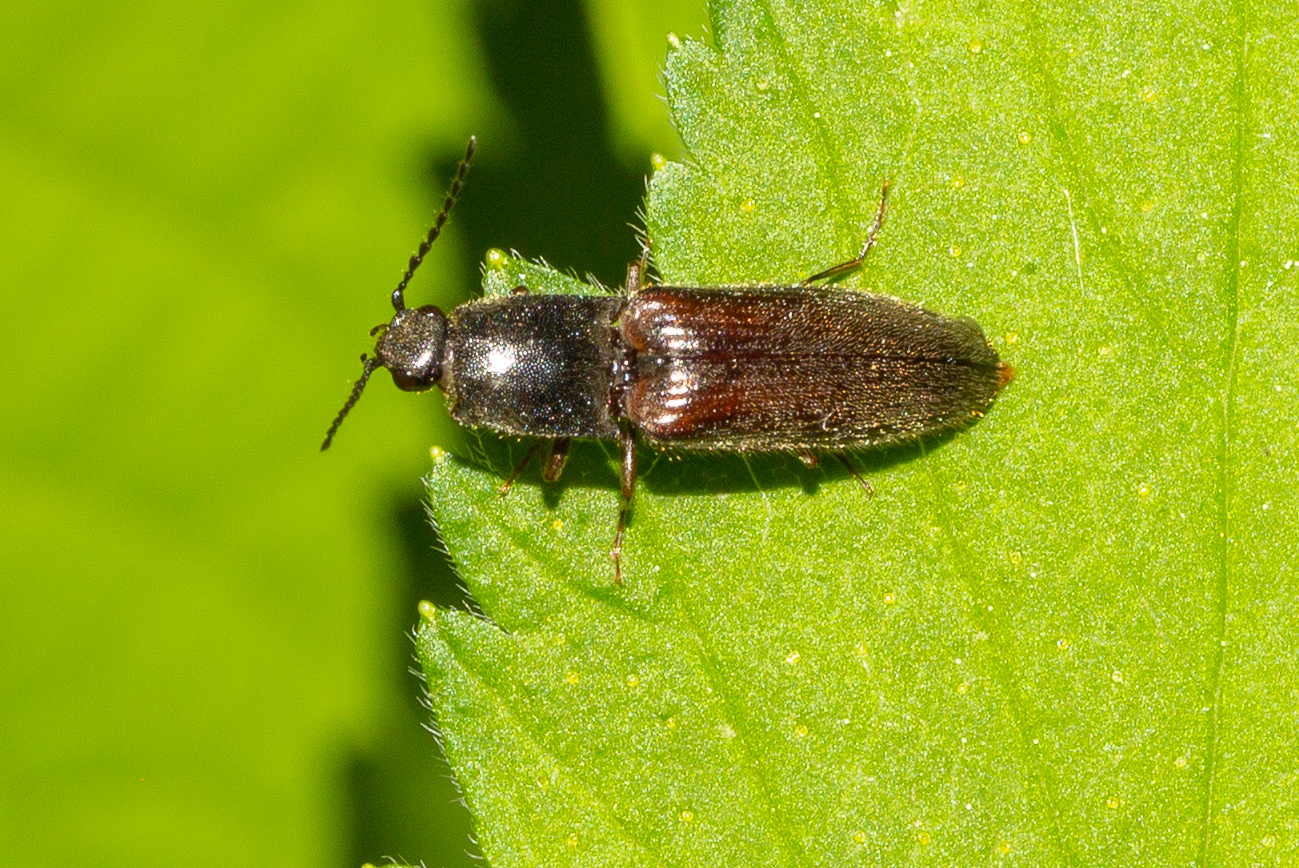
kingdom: Animalia
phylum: Arthropoda
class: Insecta
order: Coleoptera
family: Elateridae
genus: Athous
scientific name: Athous haemorrhoidalis
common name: Red-brown click beetle
